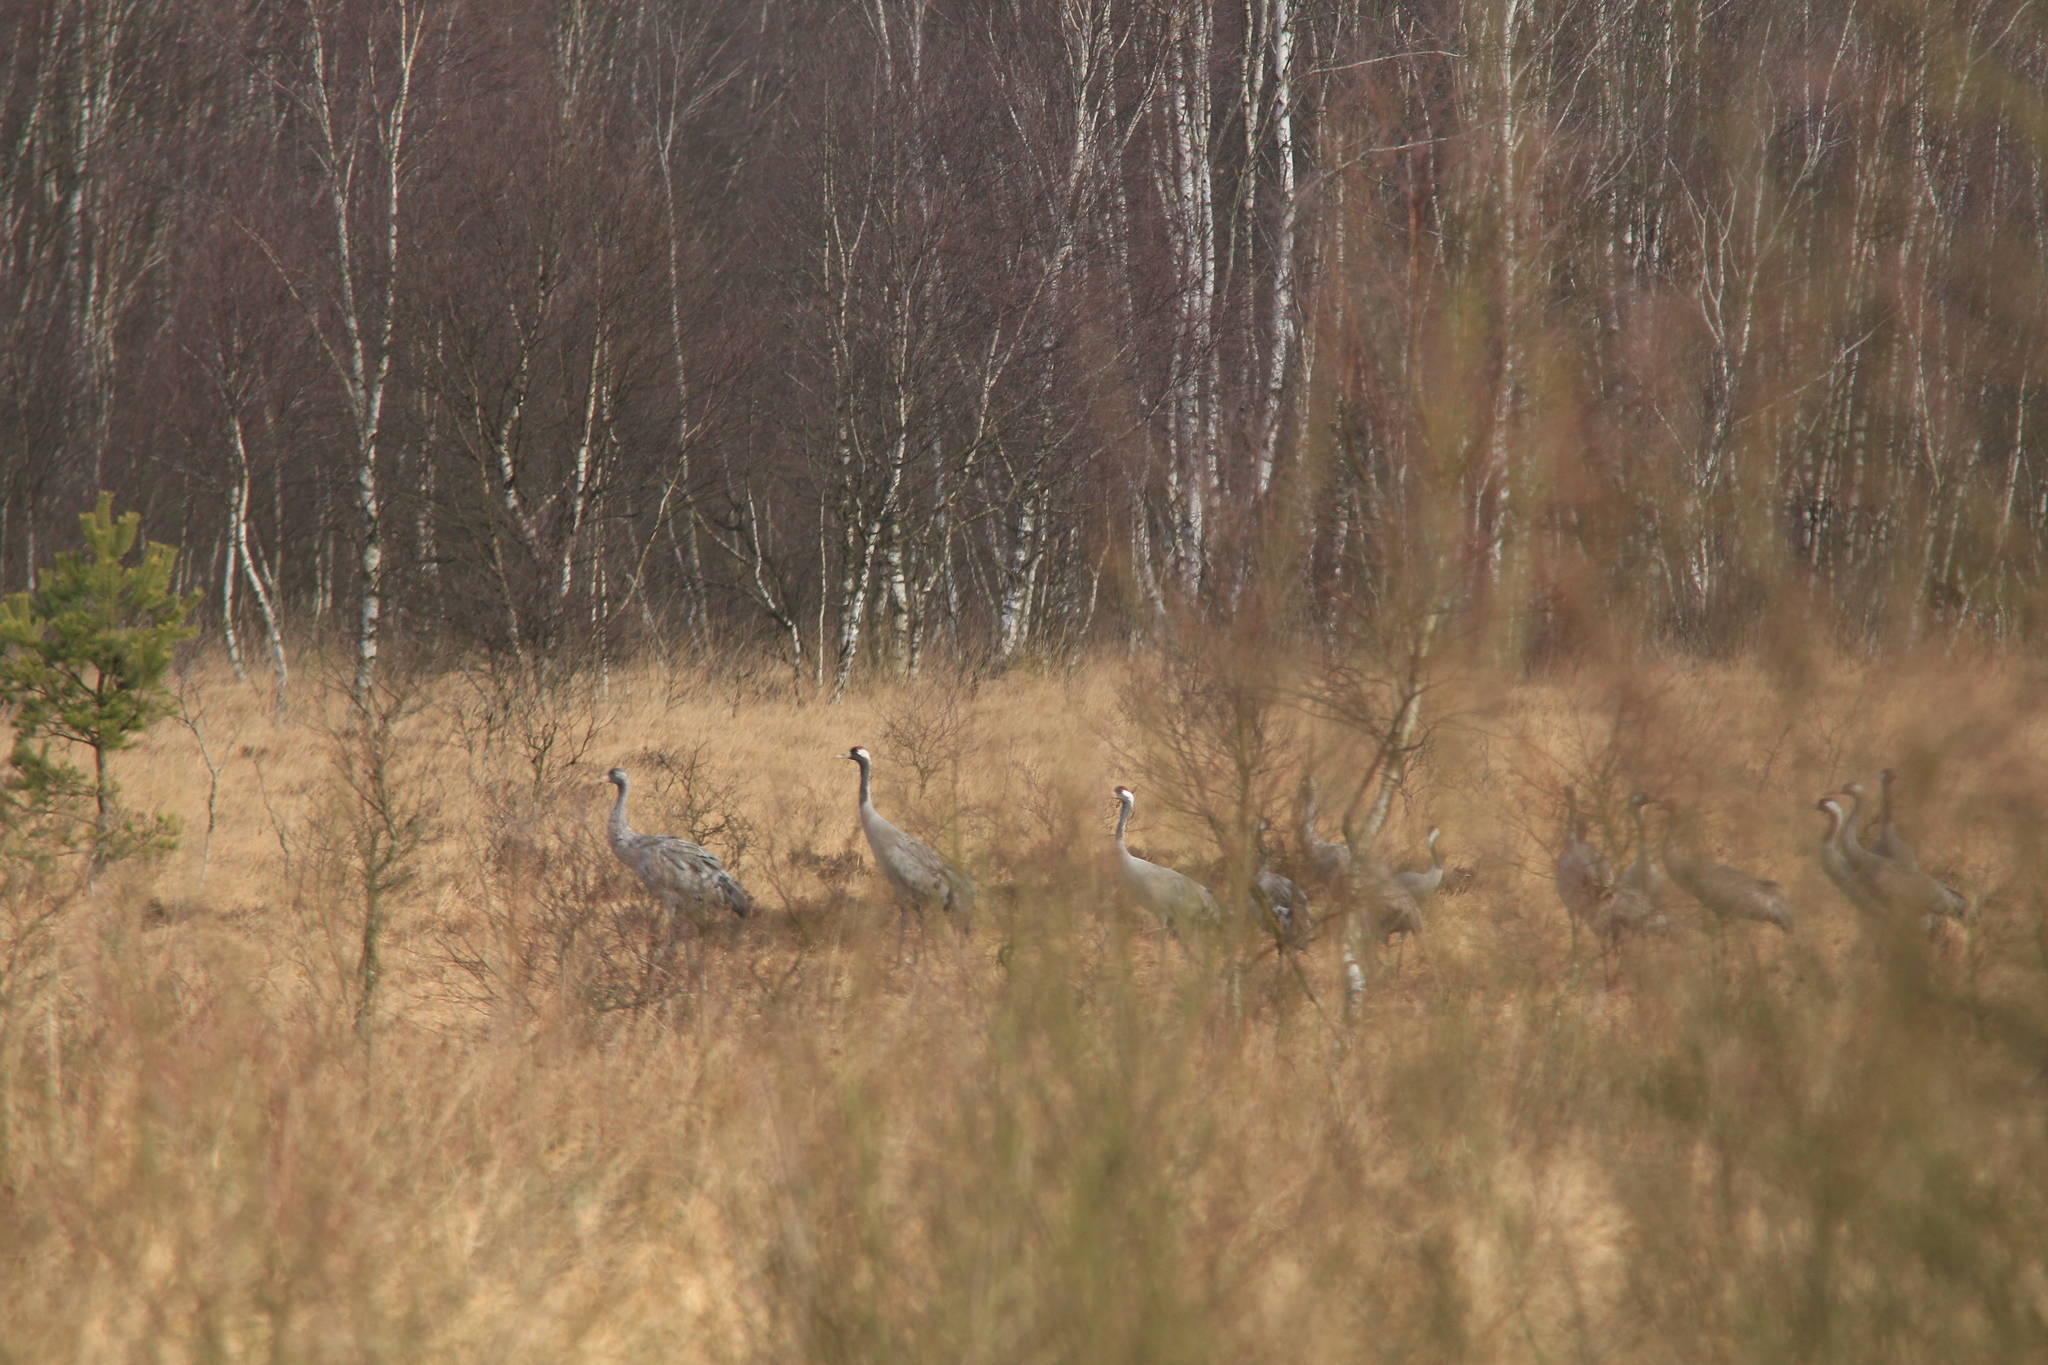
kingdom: Animalia
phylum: Chordata
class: Aves
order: Gruiformes
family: Gruidae
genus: Grus
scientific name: Grus grus
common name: Common crane
